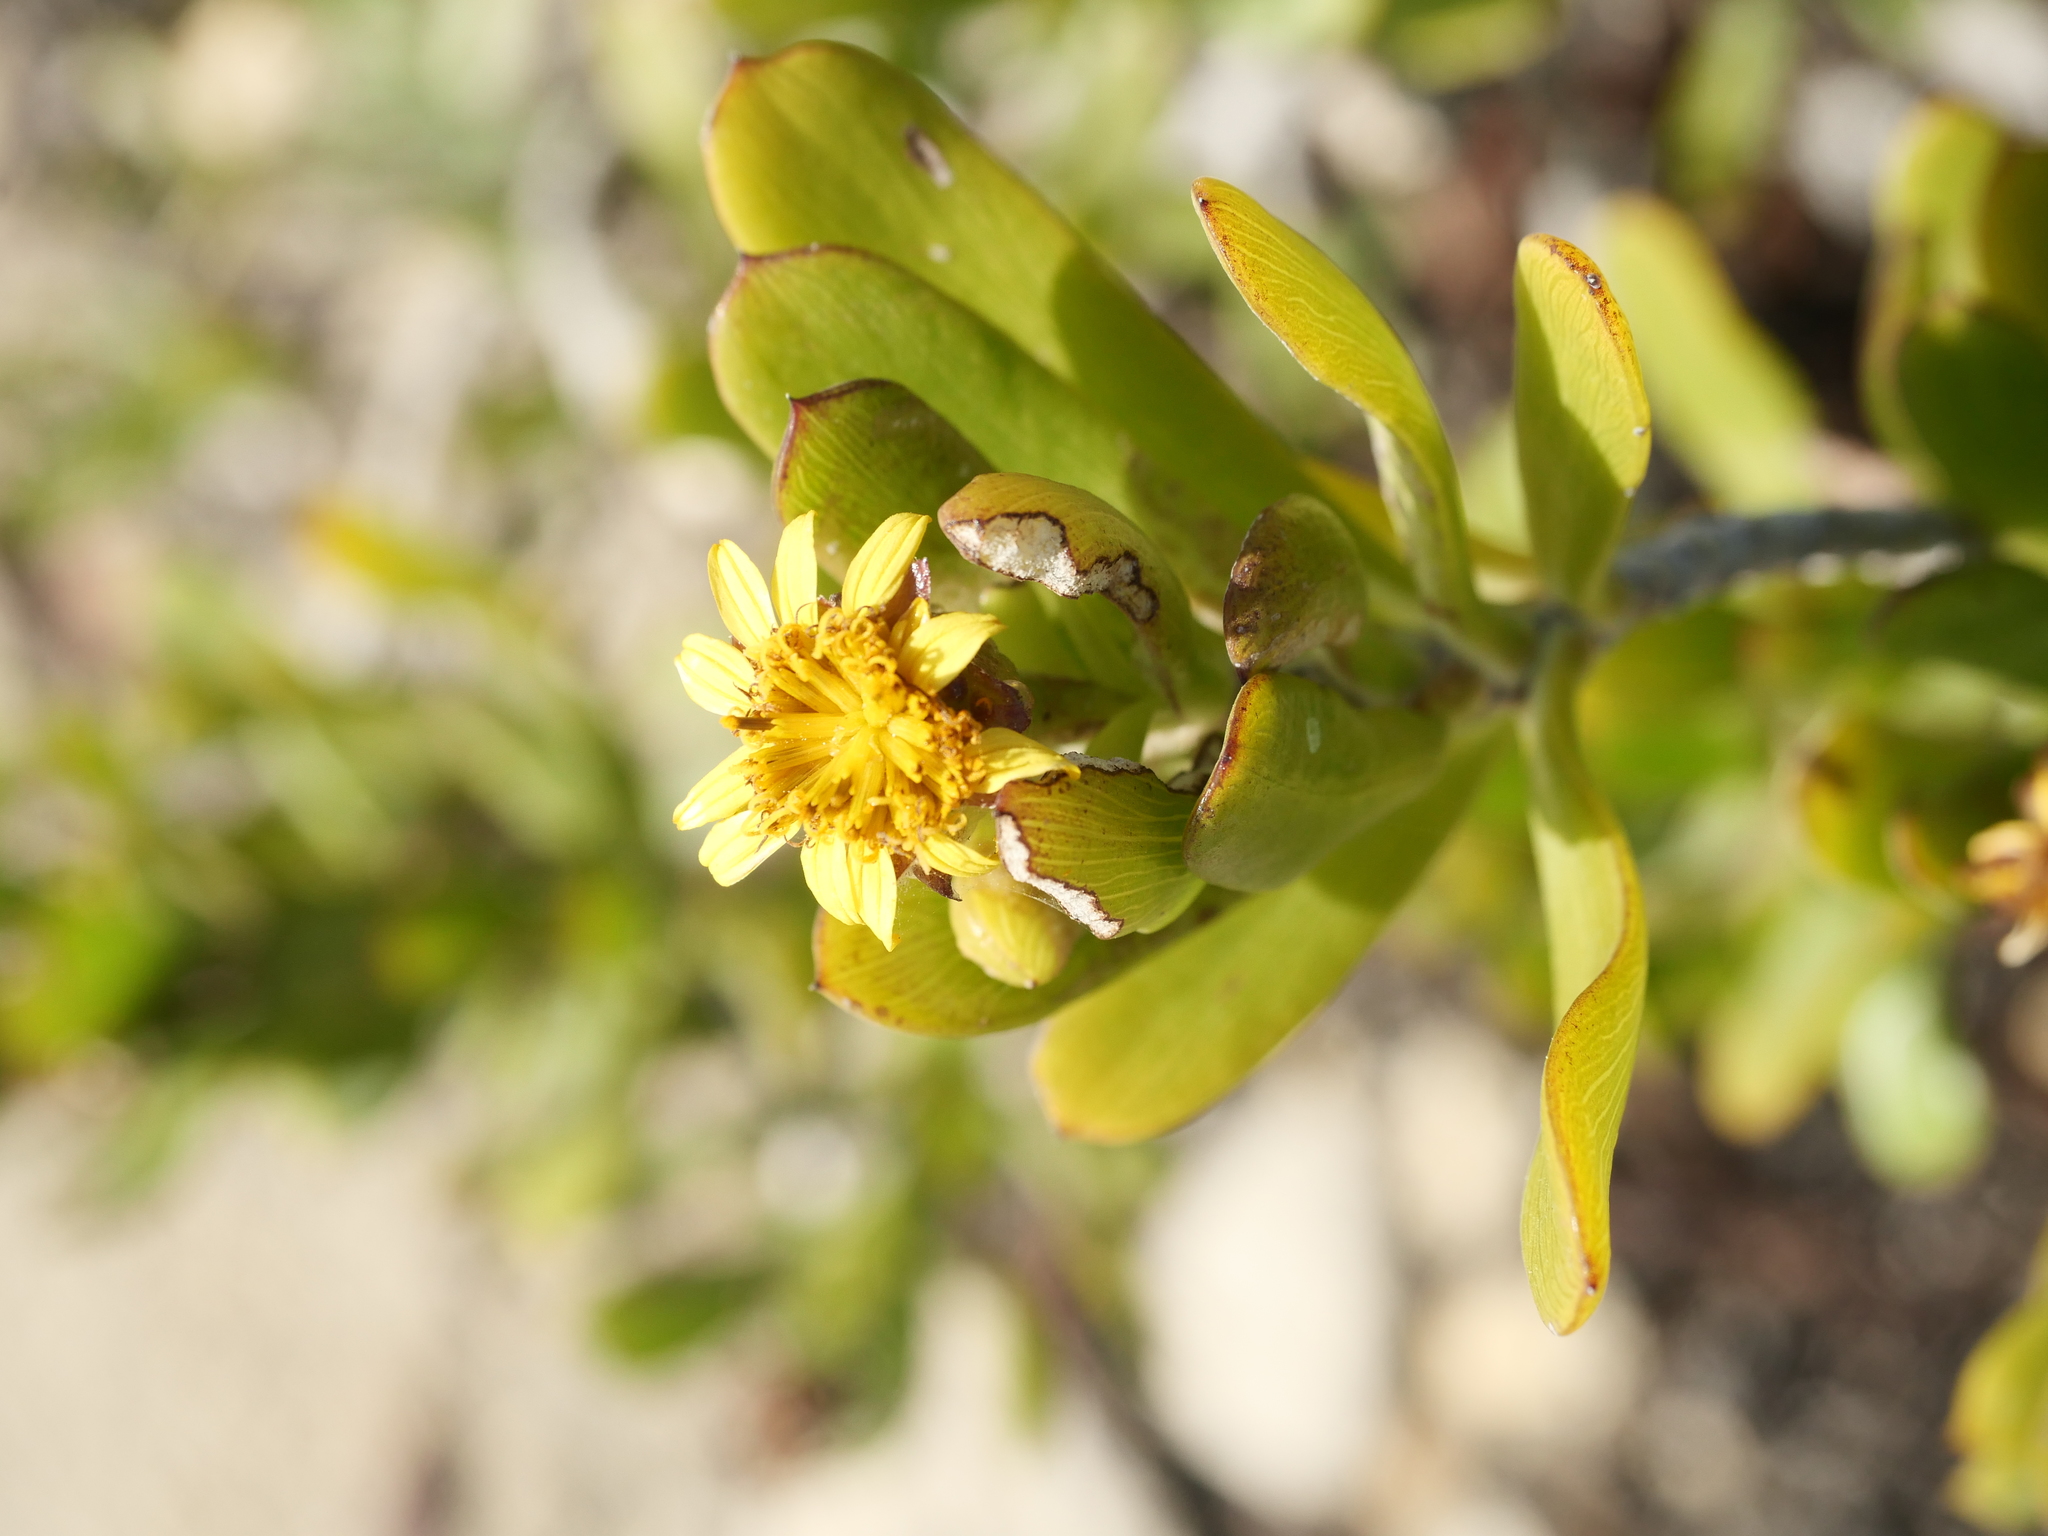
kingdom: Plantae
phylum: Tracheophyta
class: Magnoliopsida
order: Asterales
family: Asteraceae
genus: Borrichia
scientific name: Borrichia arborescens
